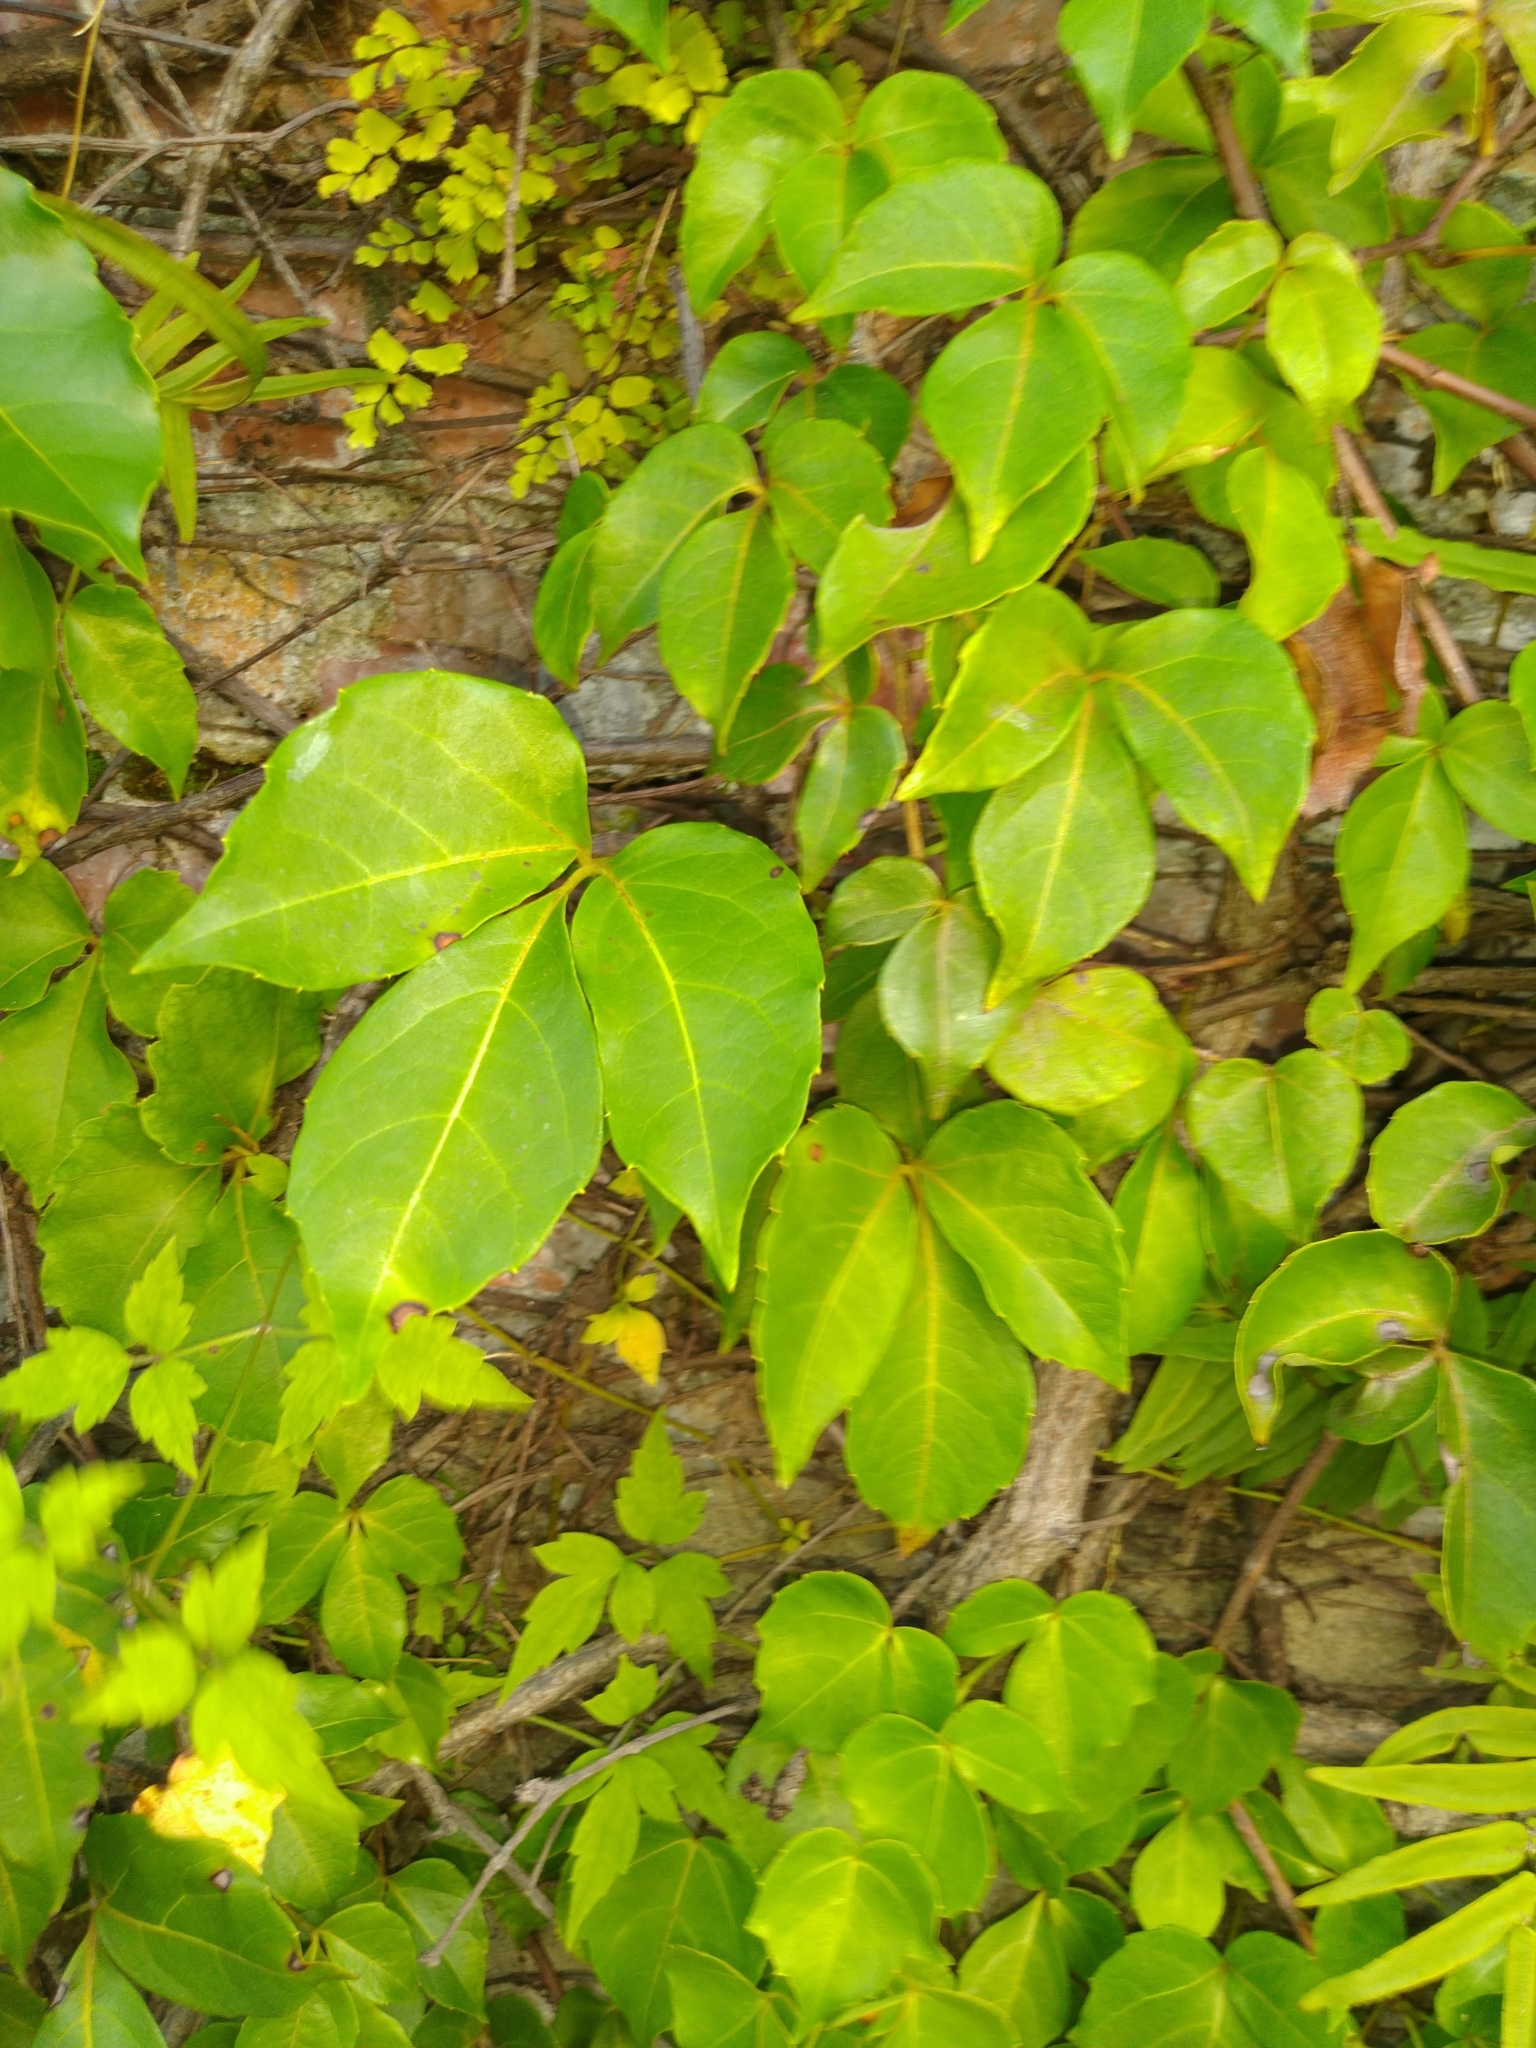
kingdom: Plantae
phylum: Tracheophyta
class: Magnoliopsida
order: Vitales
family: Vitaceae
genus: Parthenocissus
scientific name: Parthenocissus tricuspidata
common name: Boston ivy
